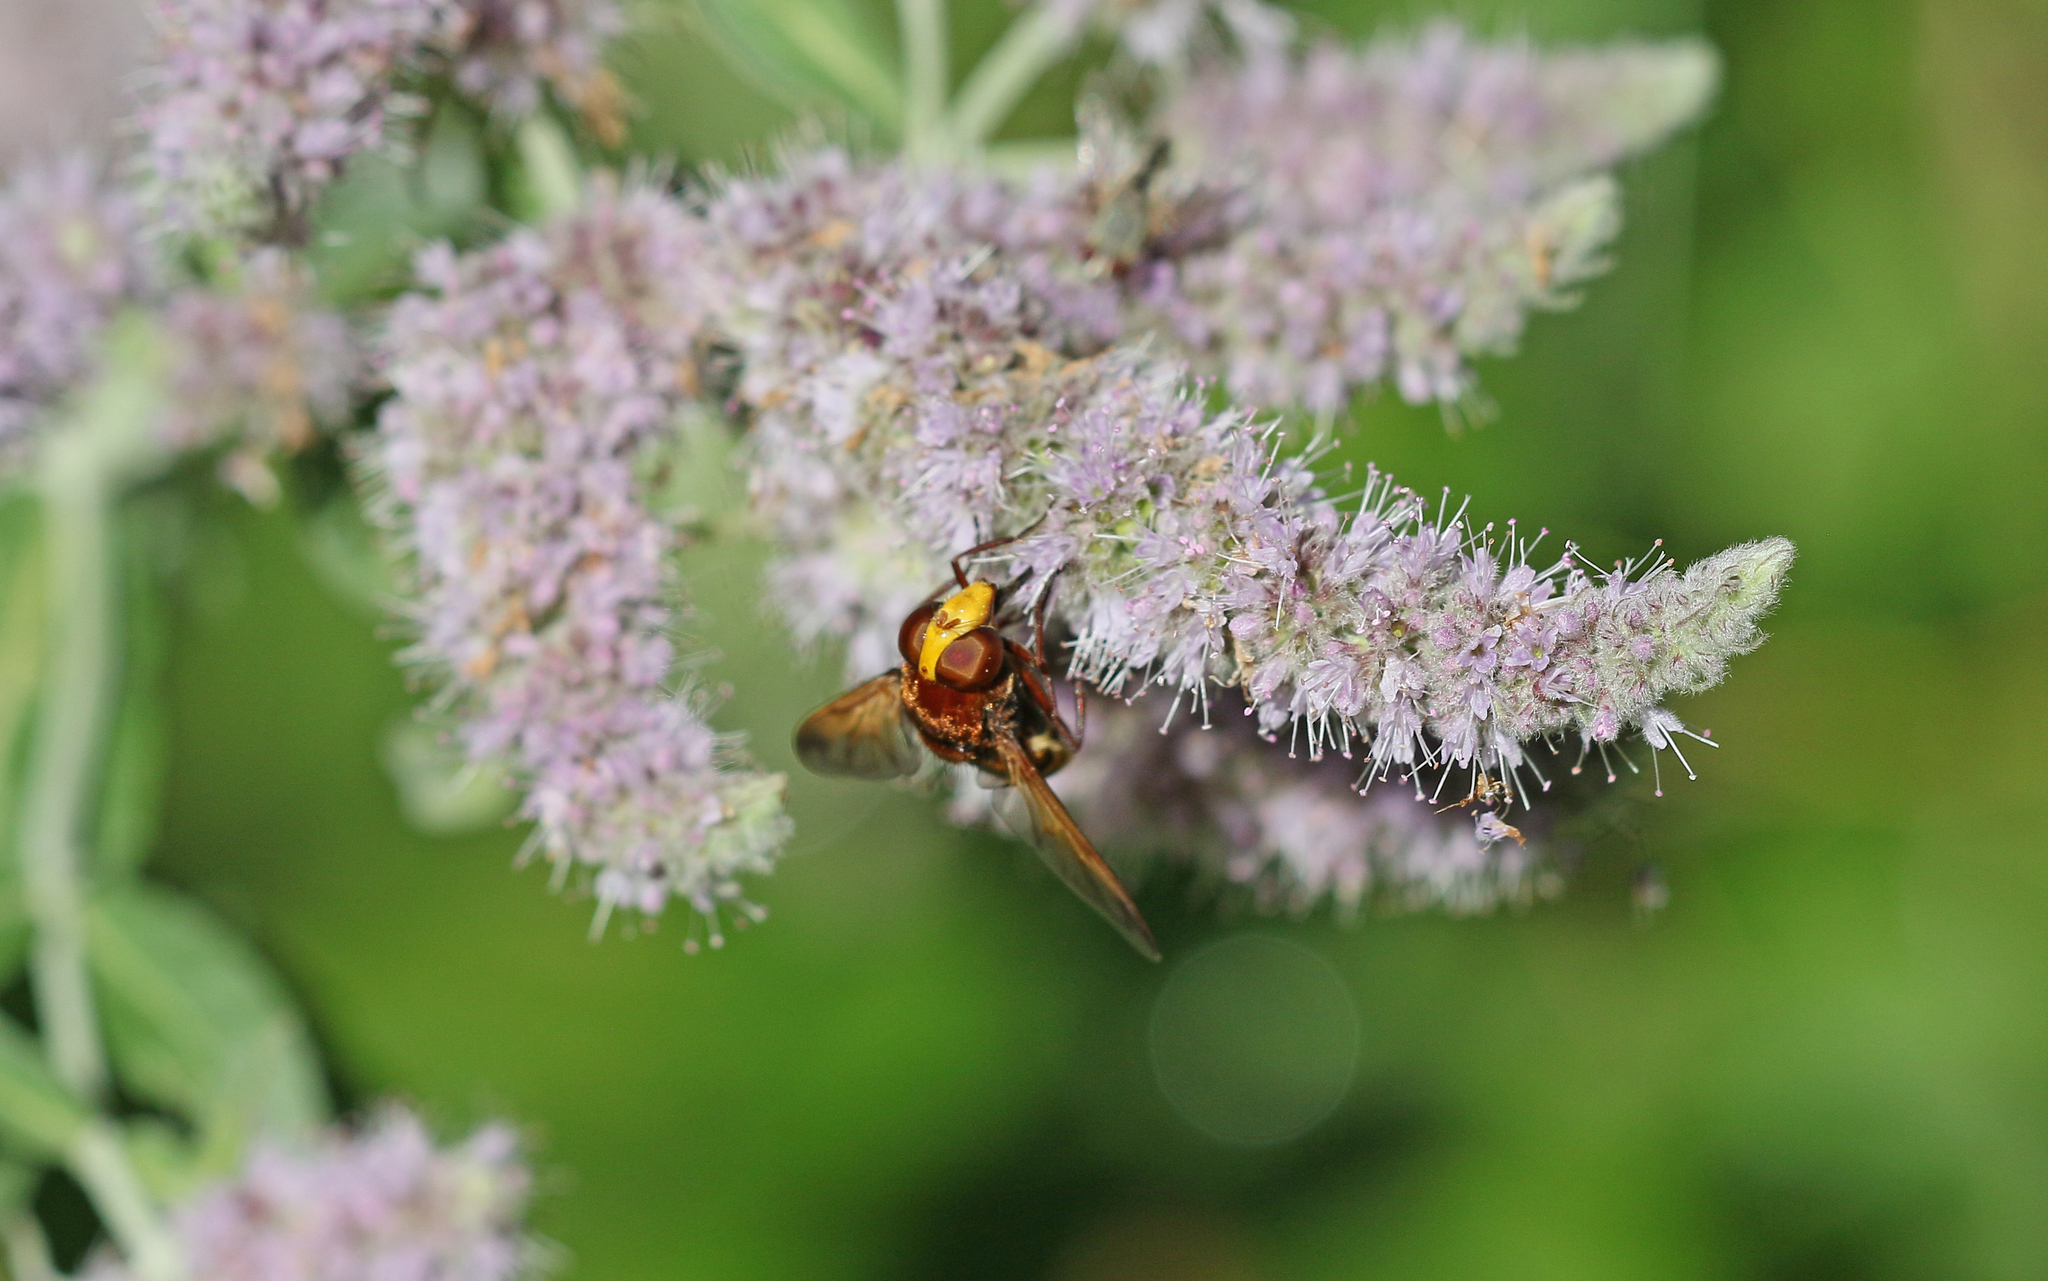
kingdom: Animalia
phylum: Arthropoda
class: Insecta
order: Diptera
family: Syrphidae
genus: Volucella
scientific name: Volucella zonaria
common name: Hornet hoverfly
